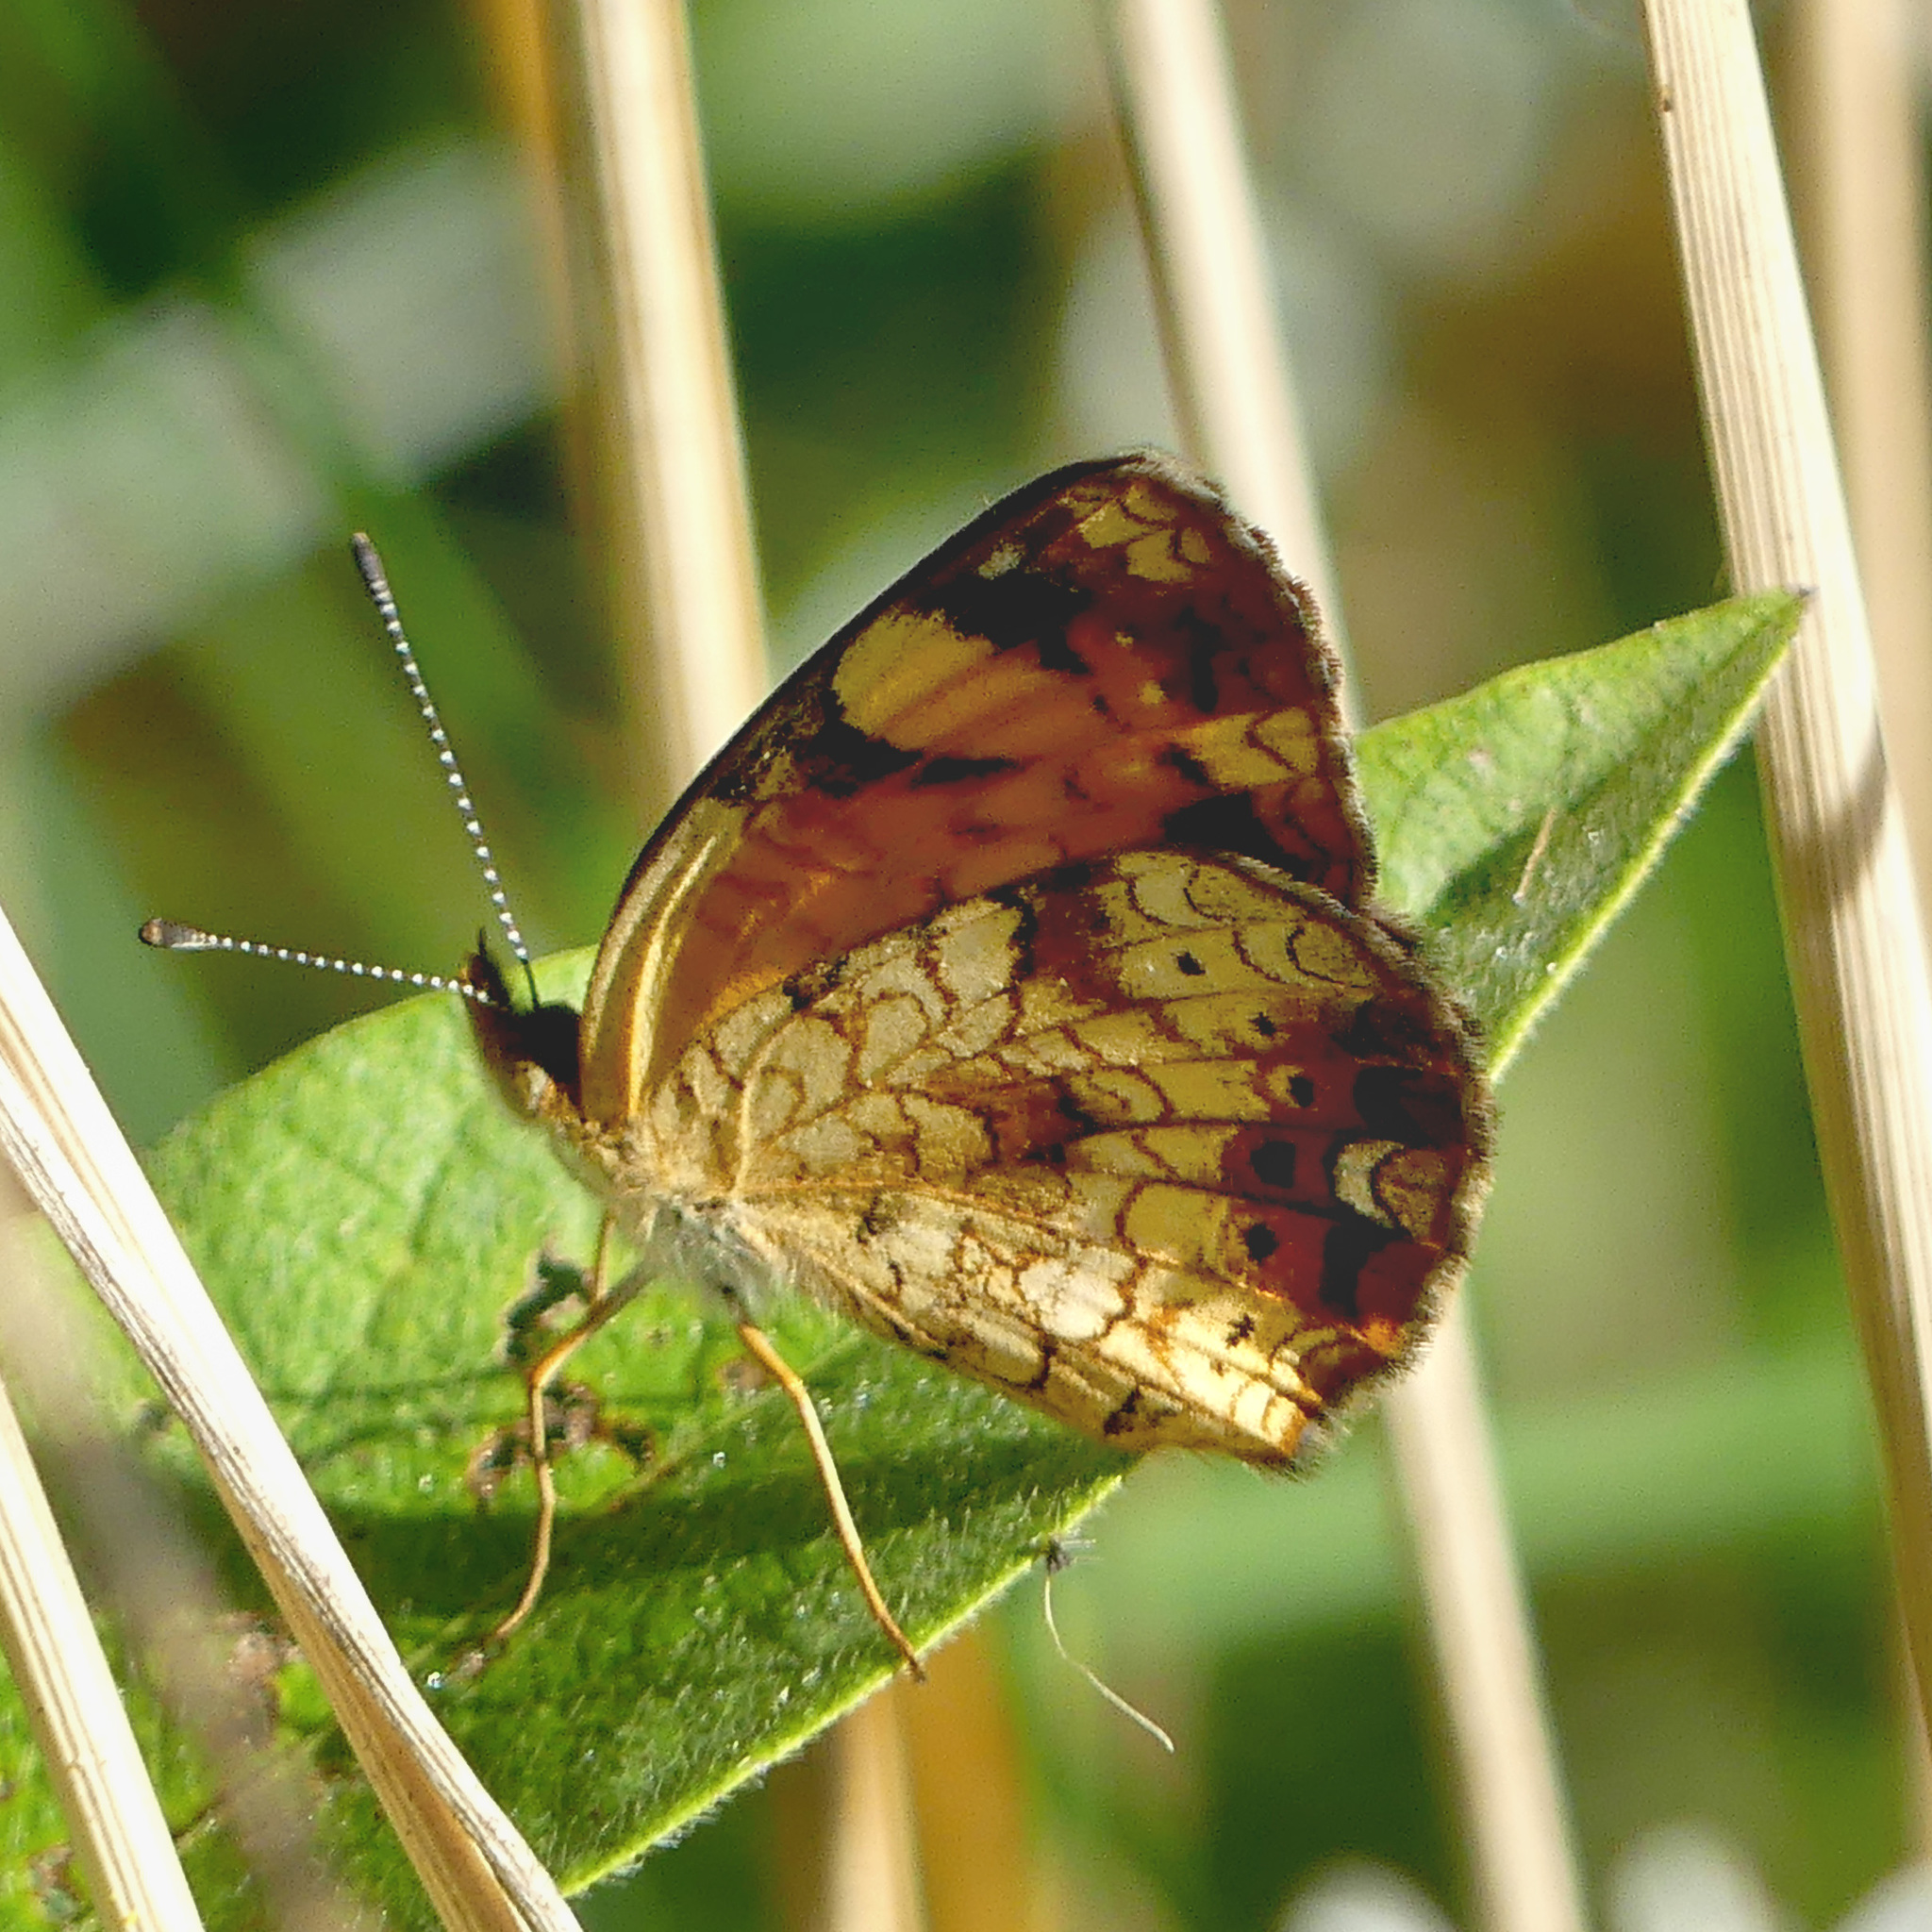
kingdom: Animalia
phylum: Arthropoda
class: Insecta
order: Lepidoptera
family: Nymphalidae
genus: Phyciodes
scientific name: Phyciodes tharos
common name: Pearl crescent
